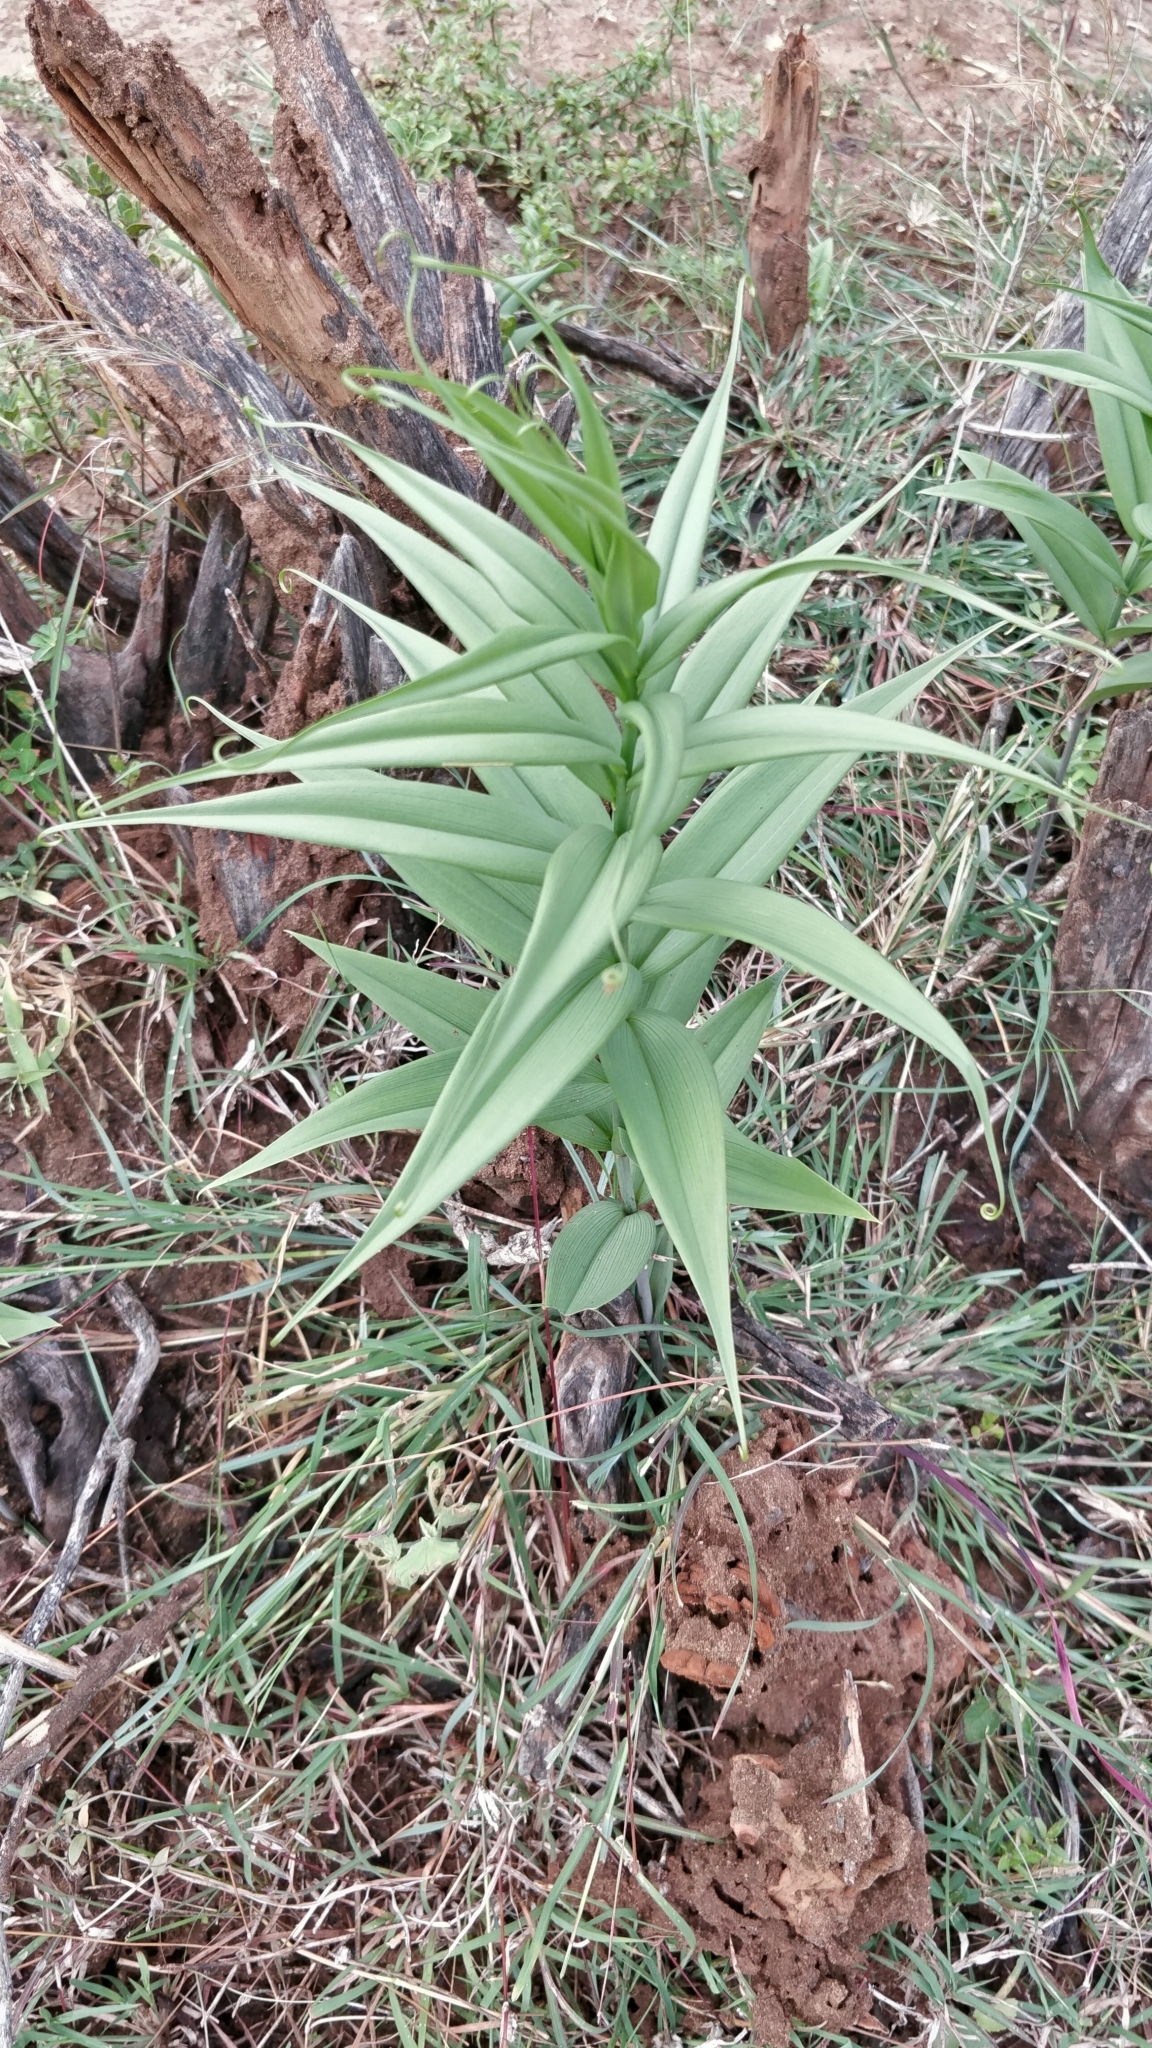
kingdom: Plantae
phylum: Tracheophyta
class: Liliopsida
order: Liliales
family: Colchicaceae
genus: Gloriosa
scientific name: Gloriosa superba
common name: Flame lily
